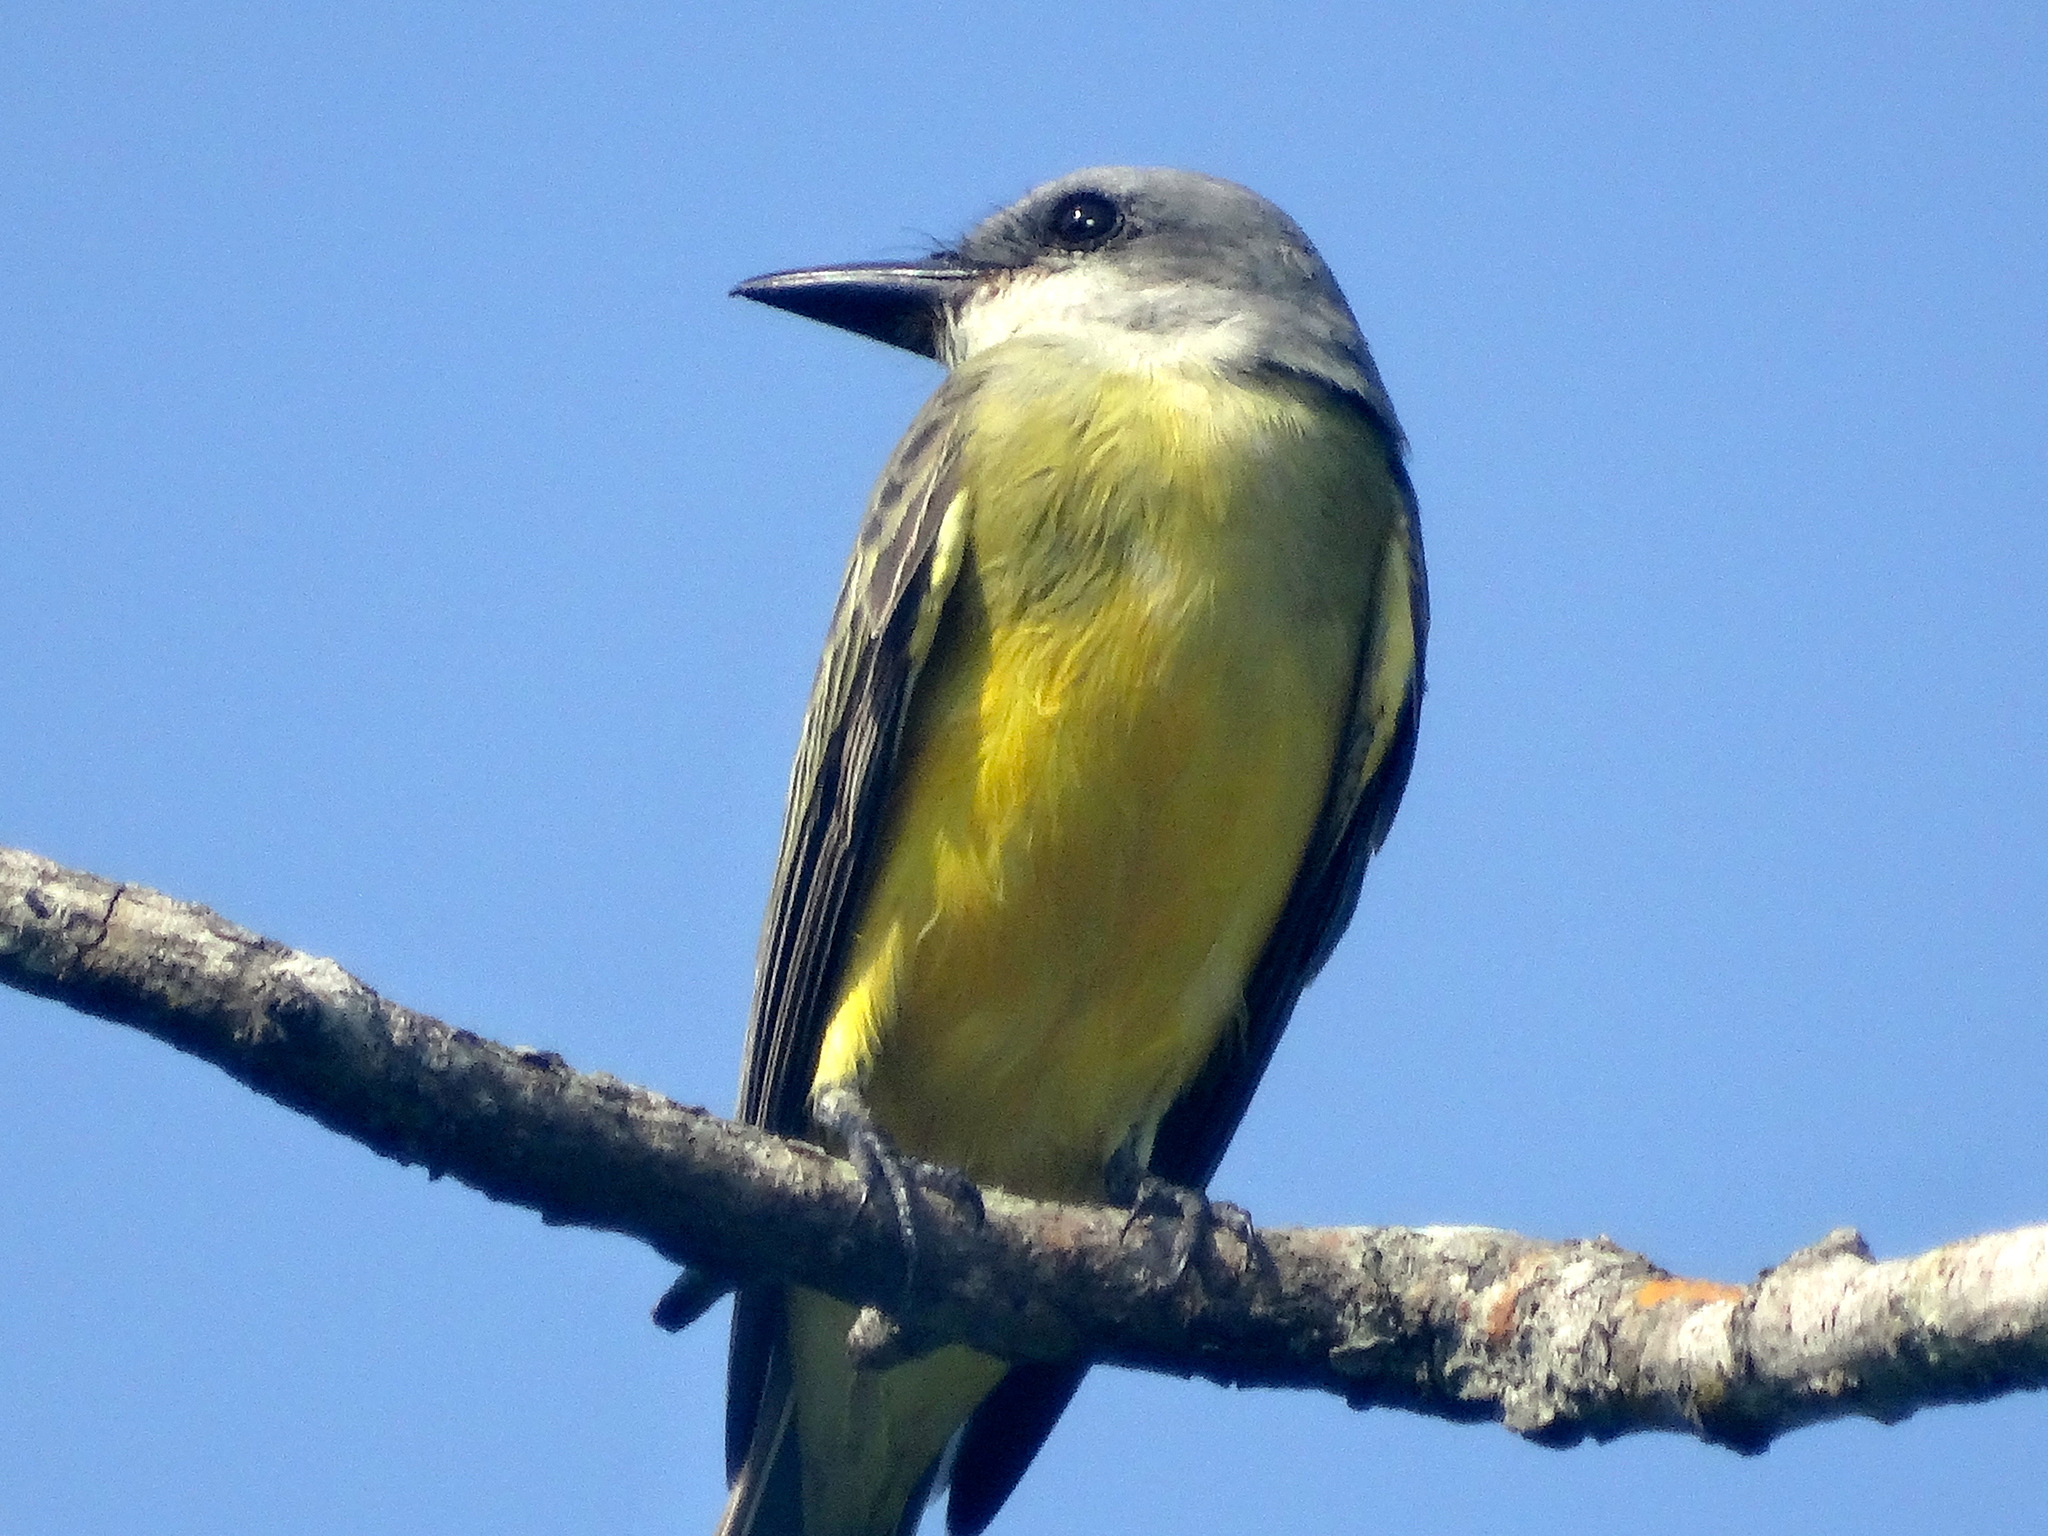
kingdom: Animalia
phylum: Chordata
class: Aves
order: Passeriformes
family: Tyrannidae
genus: Tyrannus
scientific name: Tyrannus melancholicus
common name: Tropical kingbird
